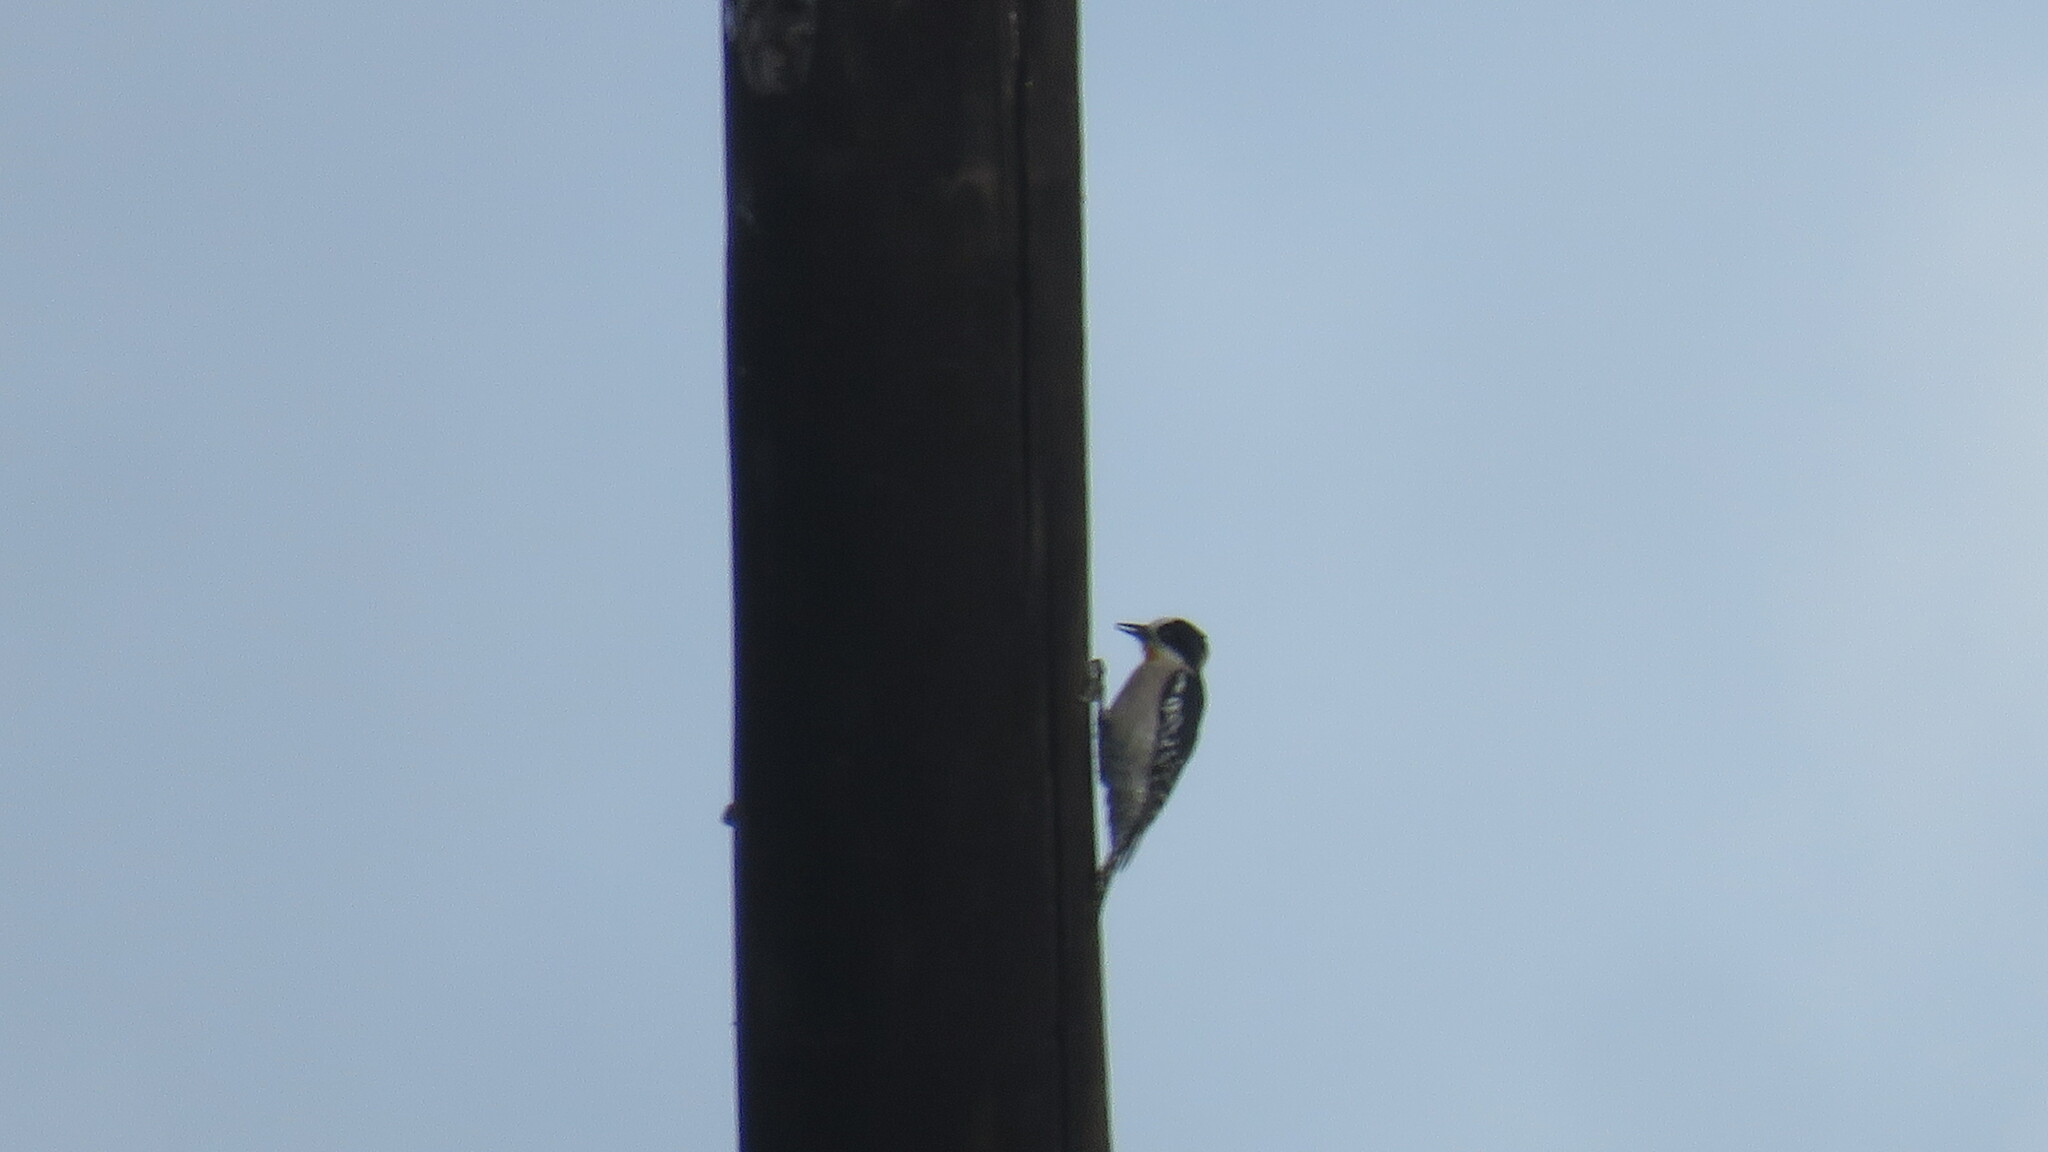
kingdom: Animalia
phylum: Chordata
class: Aves
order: Piciformes
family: Picidae
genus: Melanerpes
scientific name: Melanerpes cactorum
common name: White-fronted woodpecker
